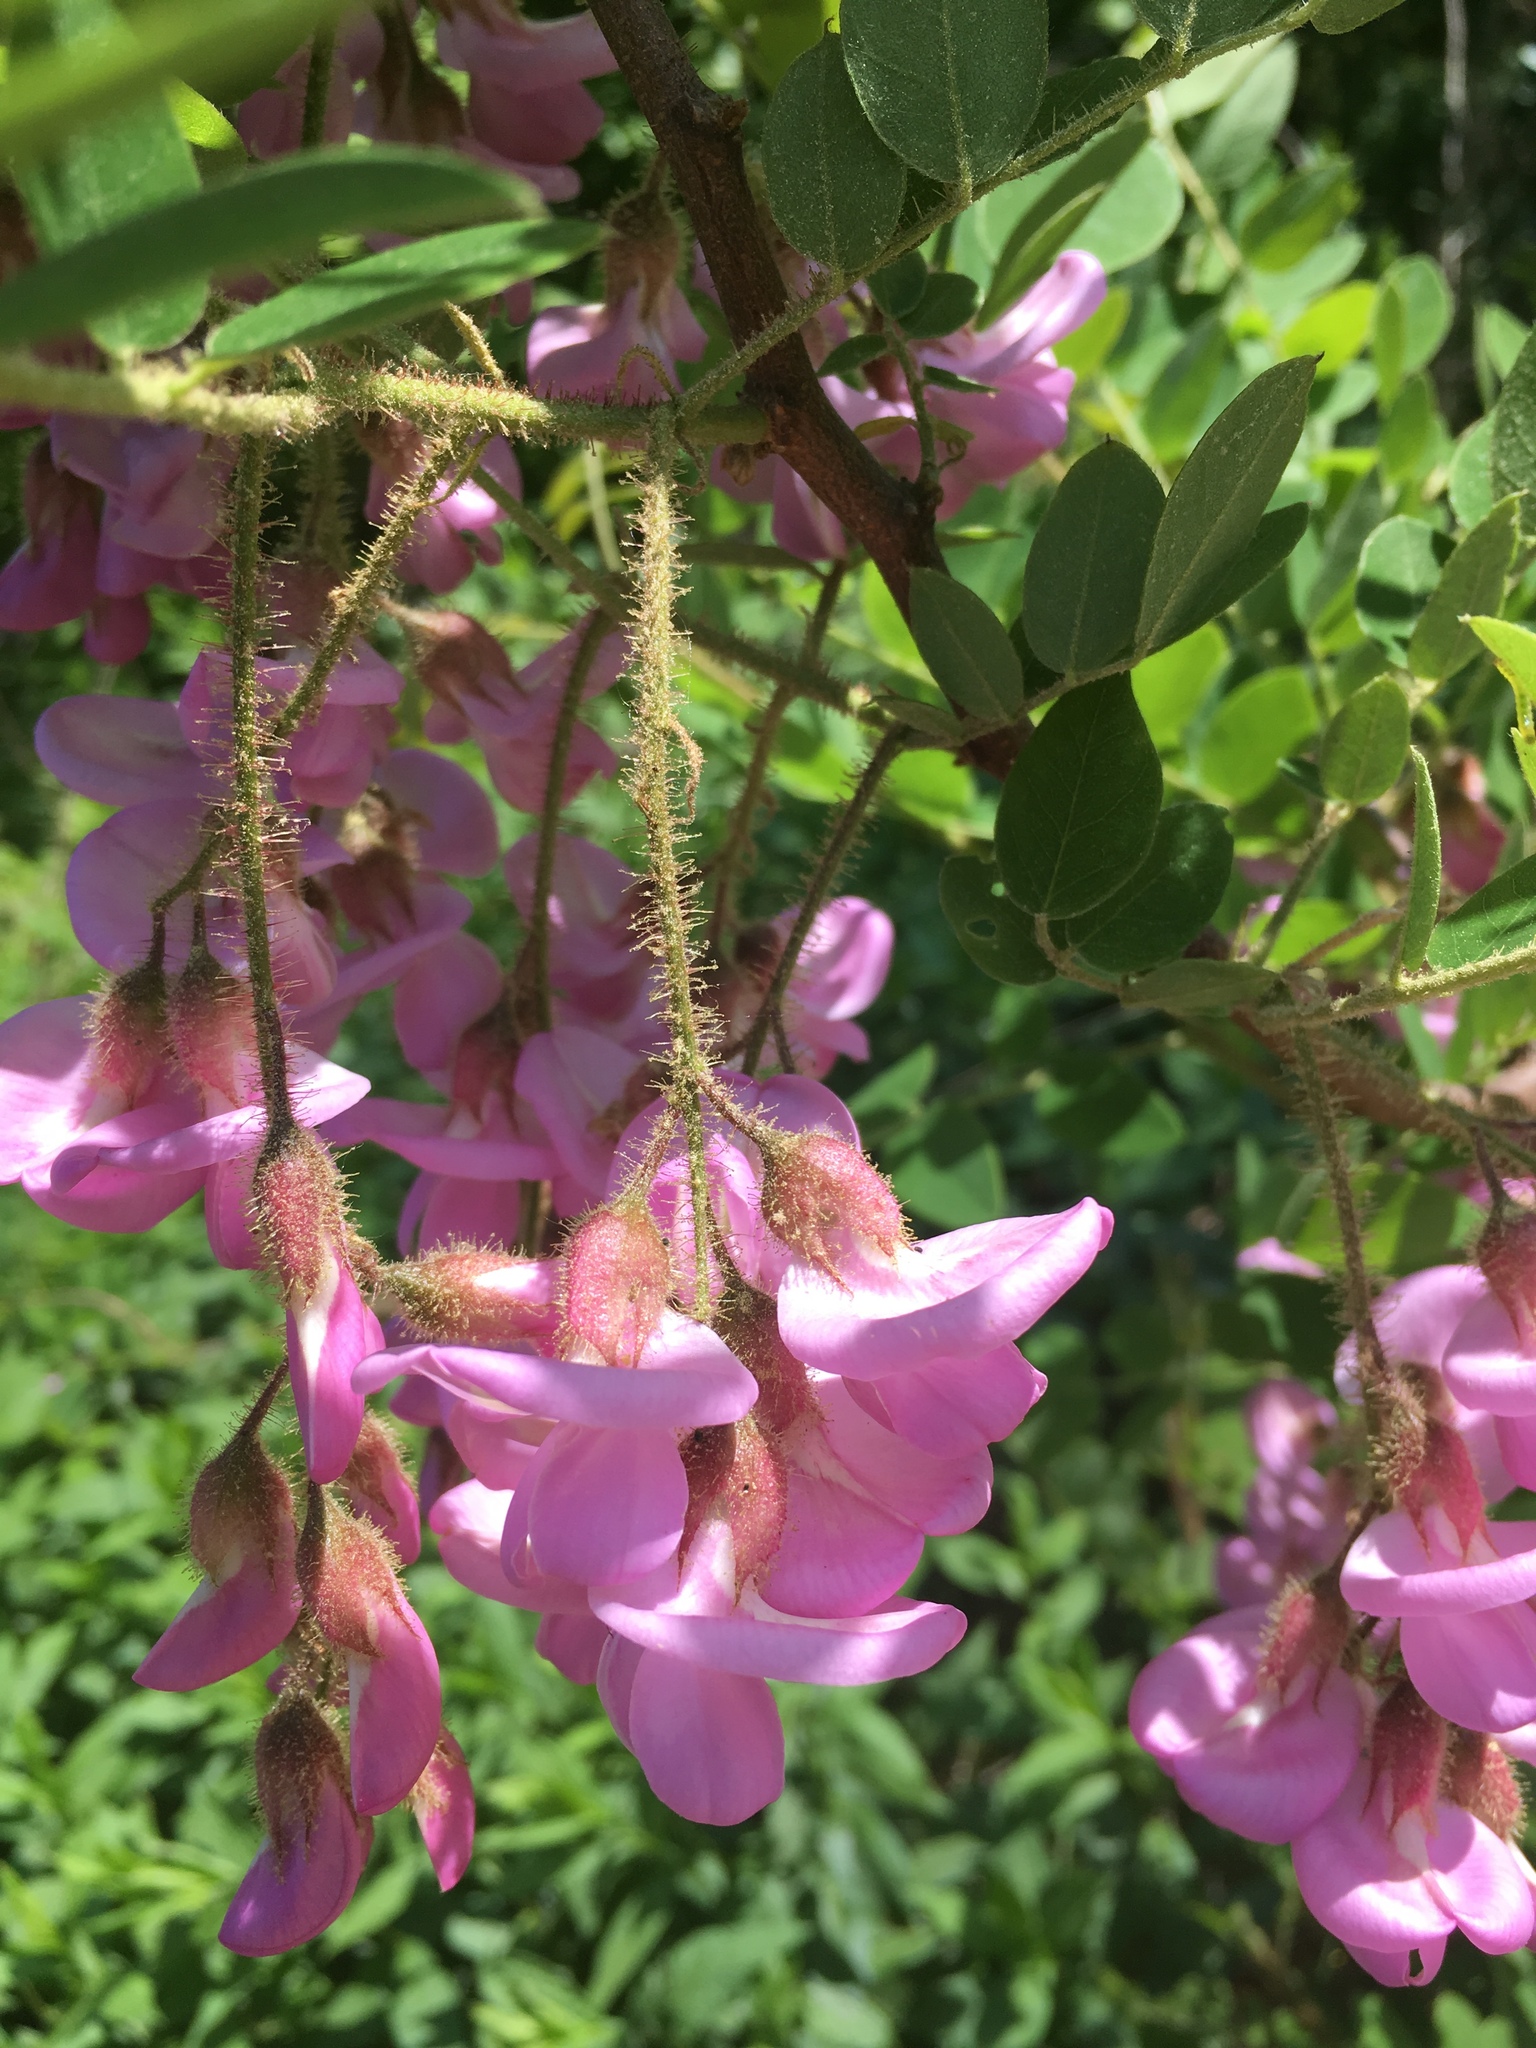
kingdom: Plantae
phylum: Tracheophyta
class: Magnoliopsida
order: Fabales
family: Fabaceae
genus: Robinia
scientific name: Robinia hispida
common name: Bristly locust
